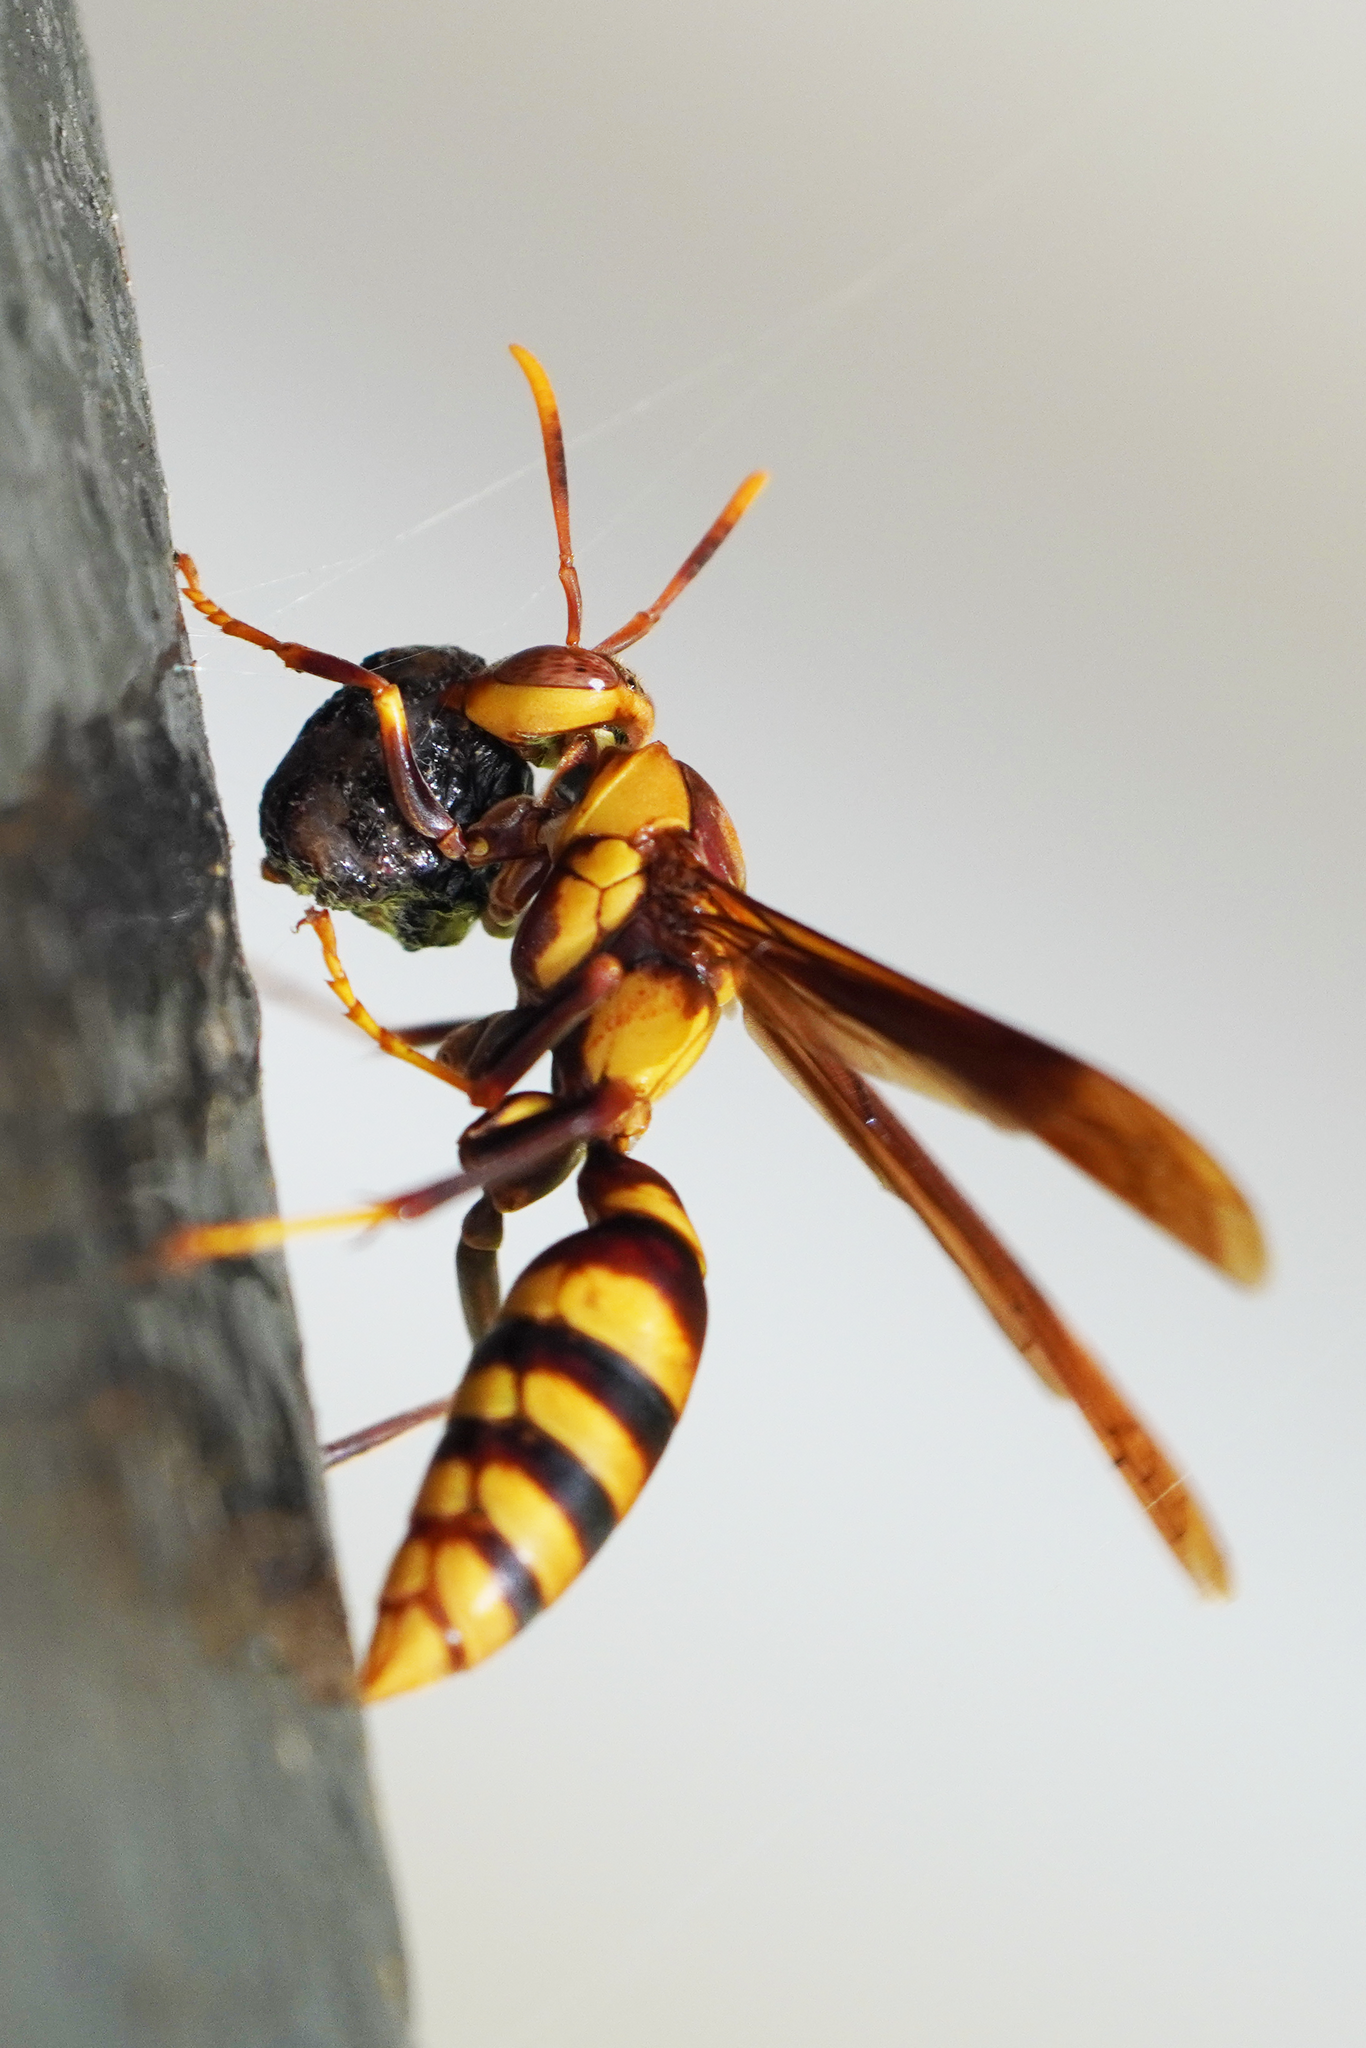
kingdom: Animalia
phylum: Arthropoda
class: Insecta
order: Hymenoptera
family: Eumenidae
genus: Polistes
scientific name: Polistes major
